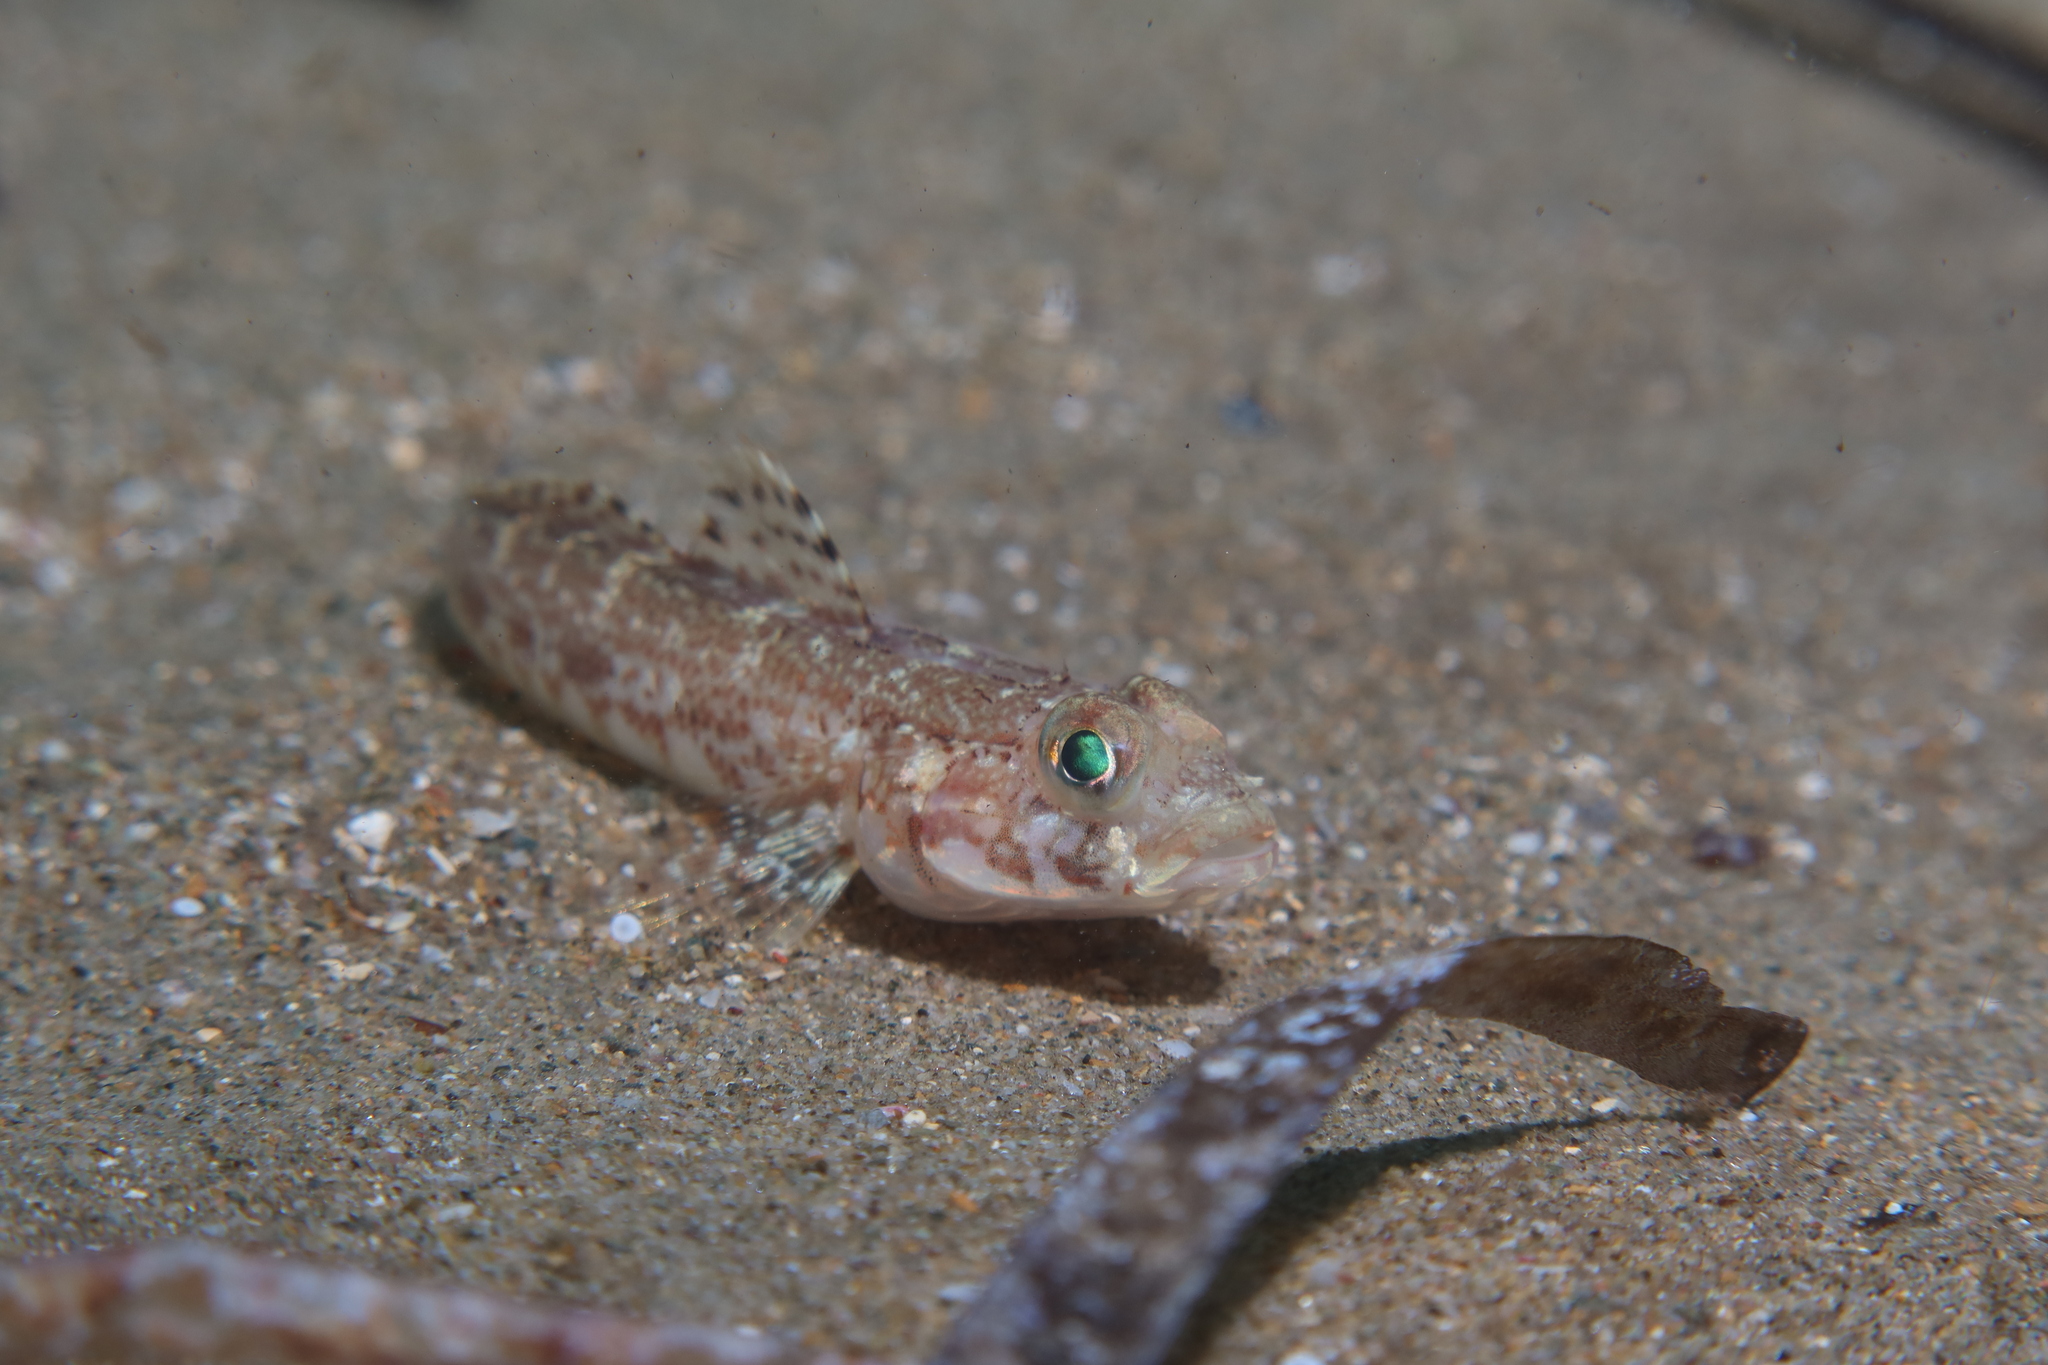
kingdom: Animalia
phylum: Chordata
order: Perciformes
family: Gobiidae
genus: Gobius
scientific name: Gobius geniporus
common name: Slender goby
